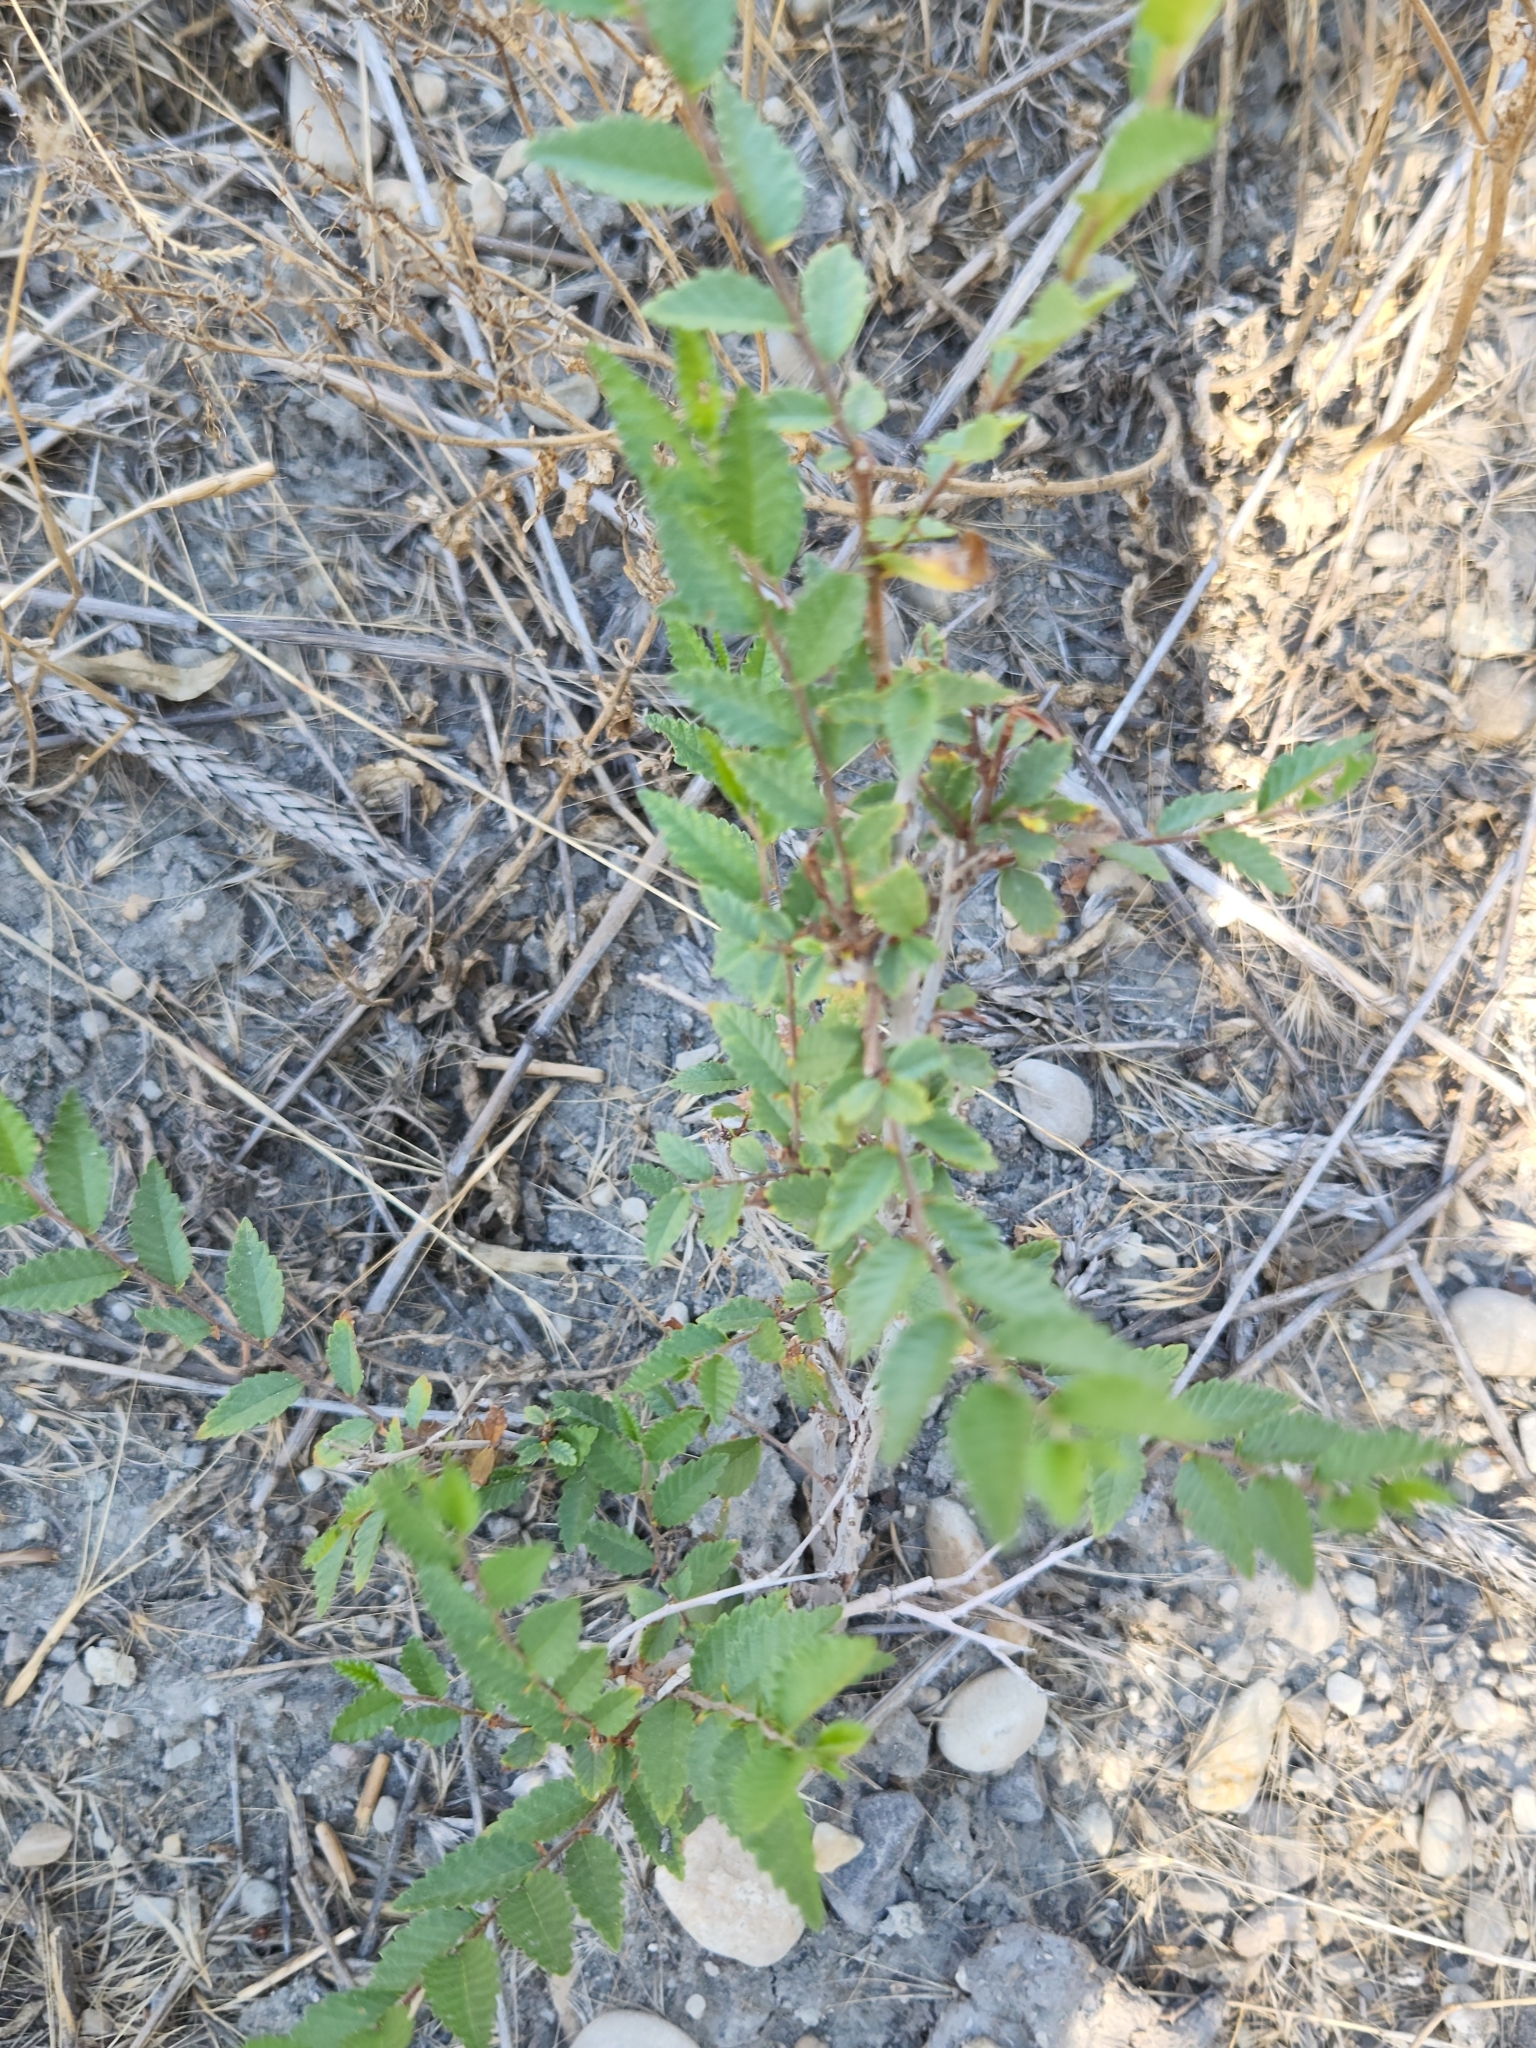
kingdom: Plantae
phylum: Tracheophyta
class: Magnoliopsida
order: Rosales
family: Ulmaceae
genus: Ulmus
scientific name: Ulmus pumila
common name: Siberian elm
